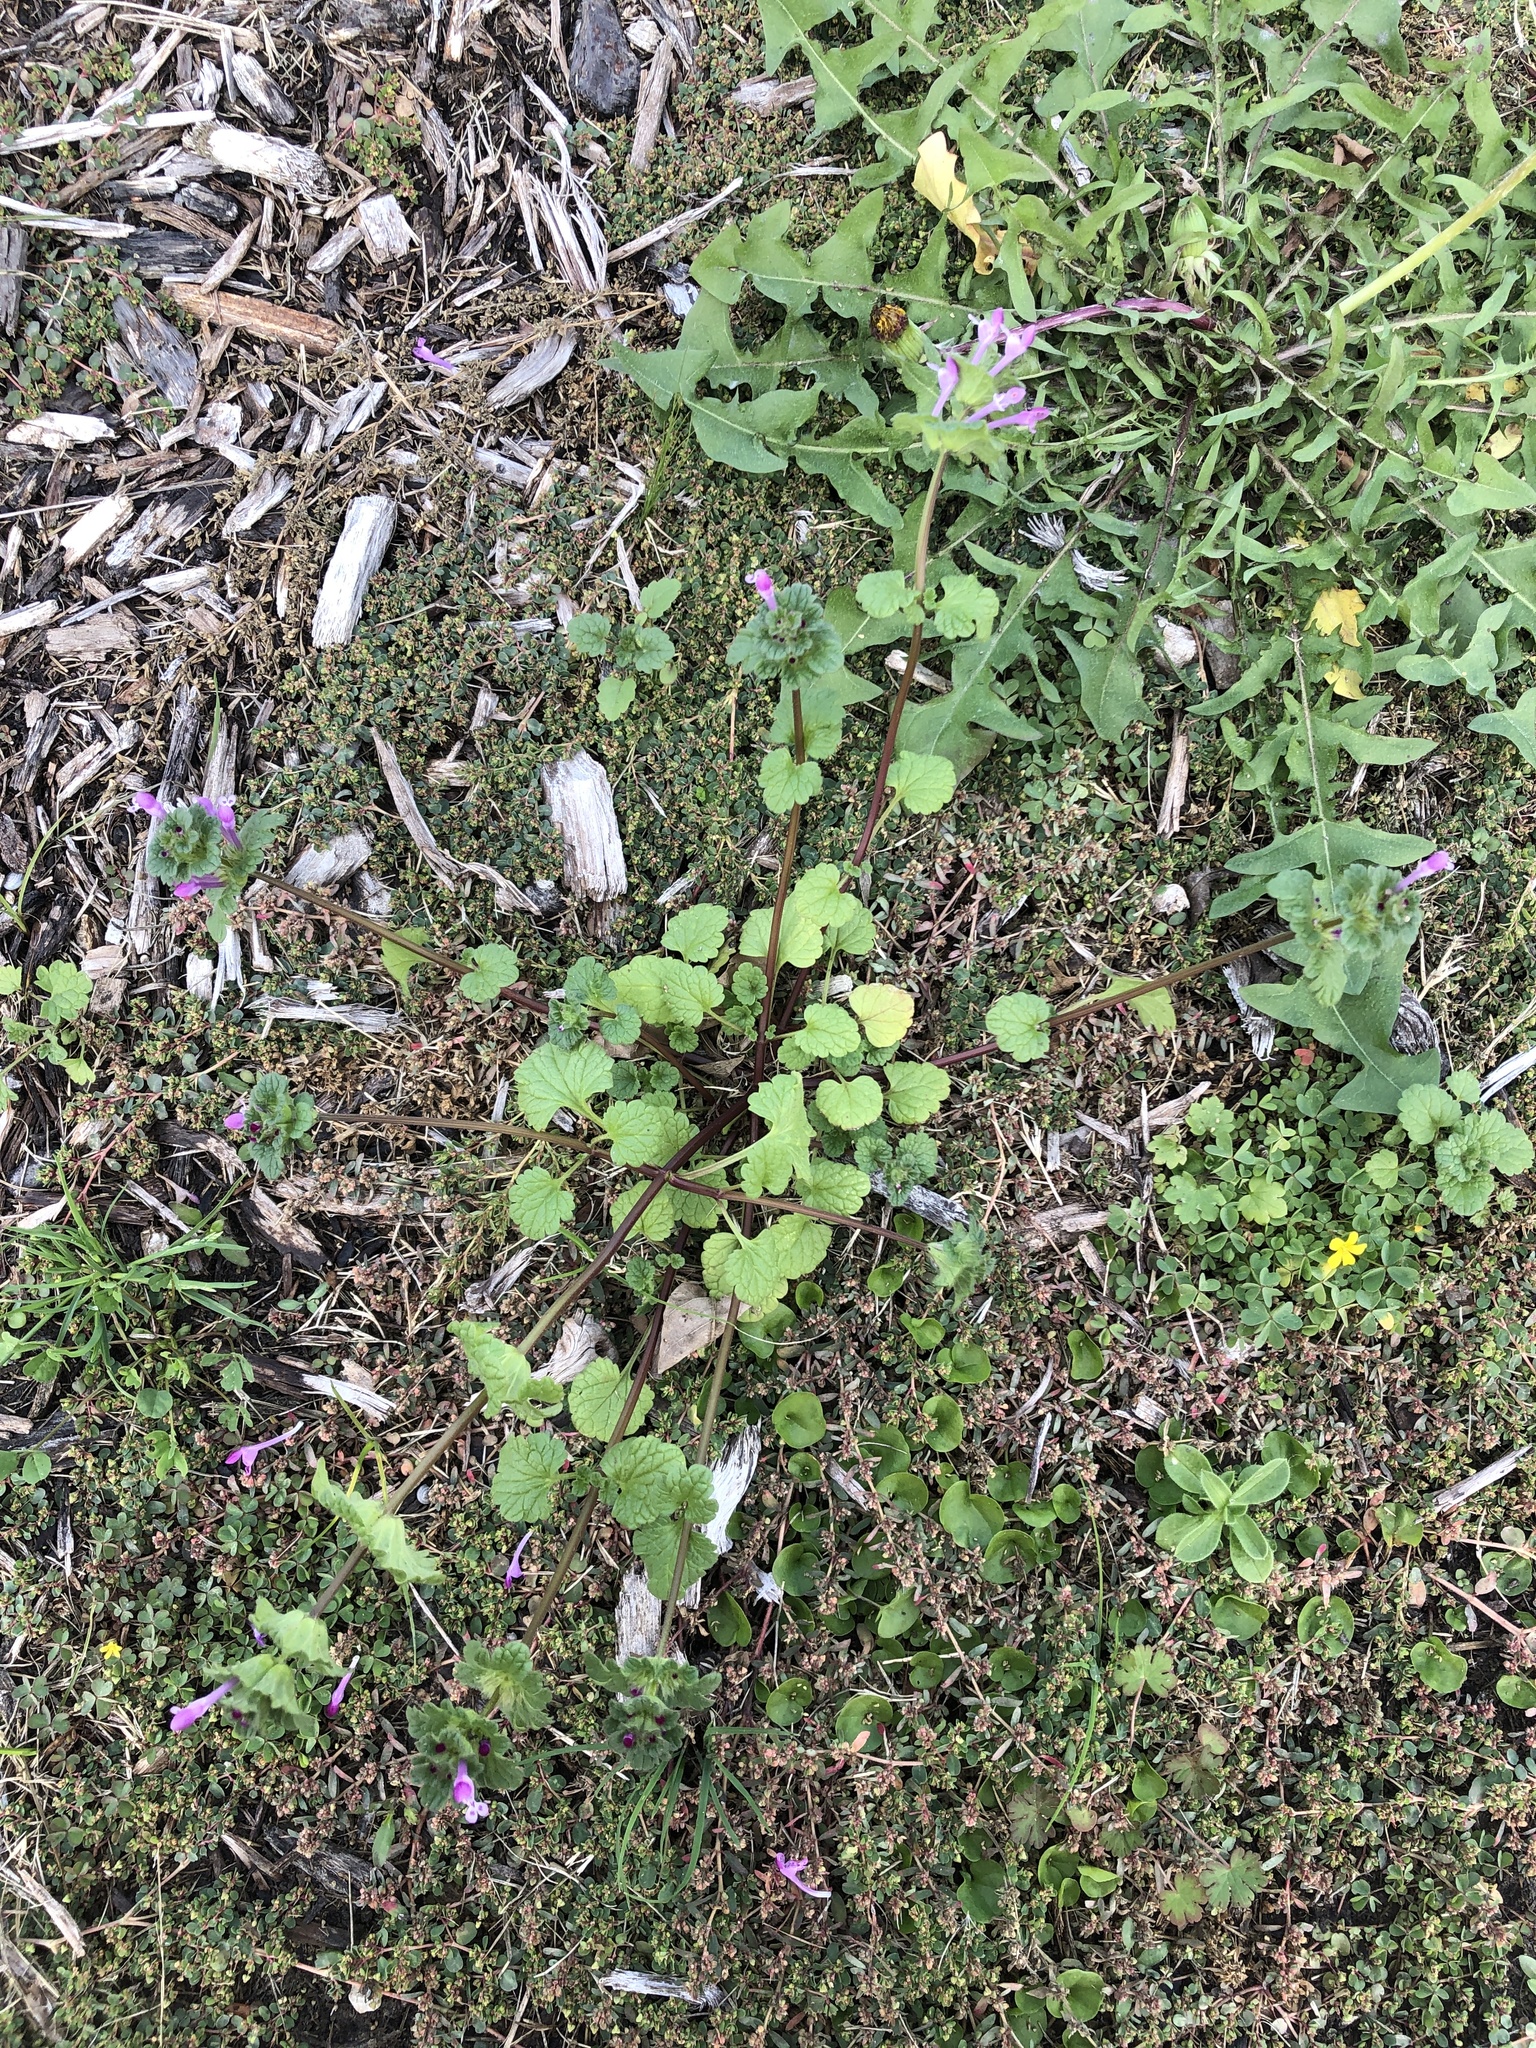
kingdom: Plantae
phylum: Tracheophyta
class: Magnoliopsida
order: Lamiales
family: Lamiaceae
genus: Lamium
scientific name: Lamium amplexicaule
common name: Henbit dead-nettle
